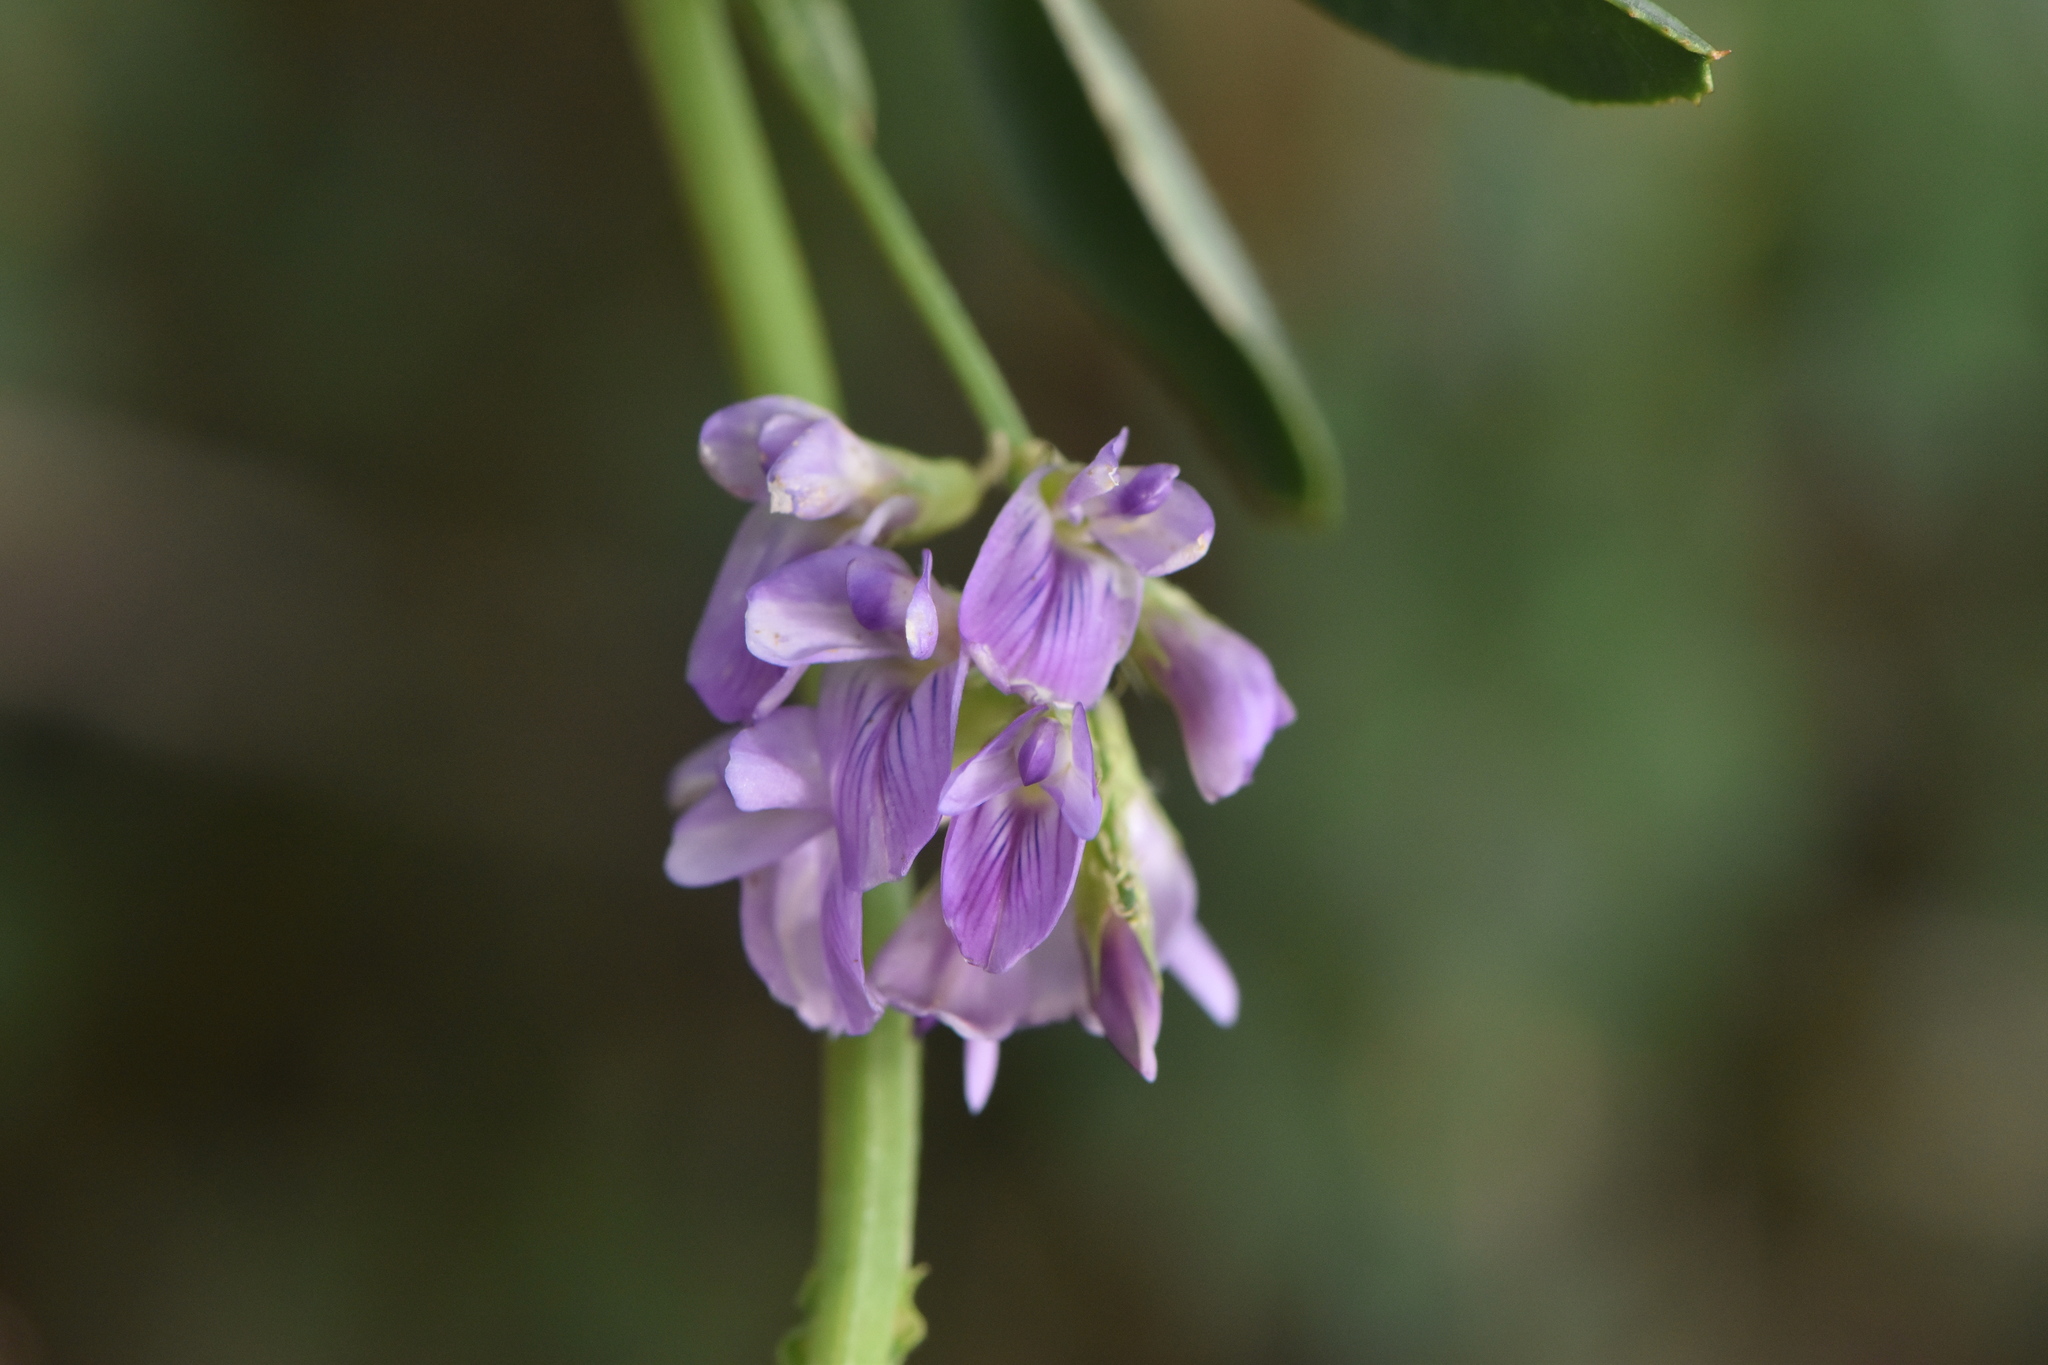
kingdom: Plantae
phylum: Tracheophyta
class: Magnoliopsida
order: Fabales
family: Fabaceae
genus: Medicago
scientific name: Medicago sativa
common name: Alfalfa
